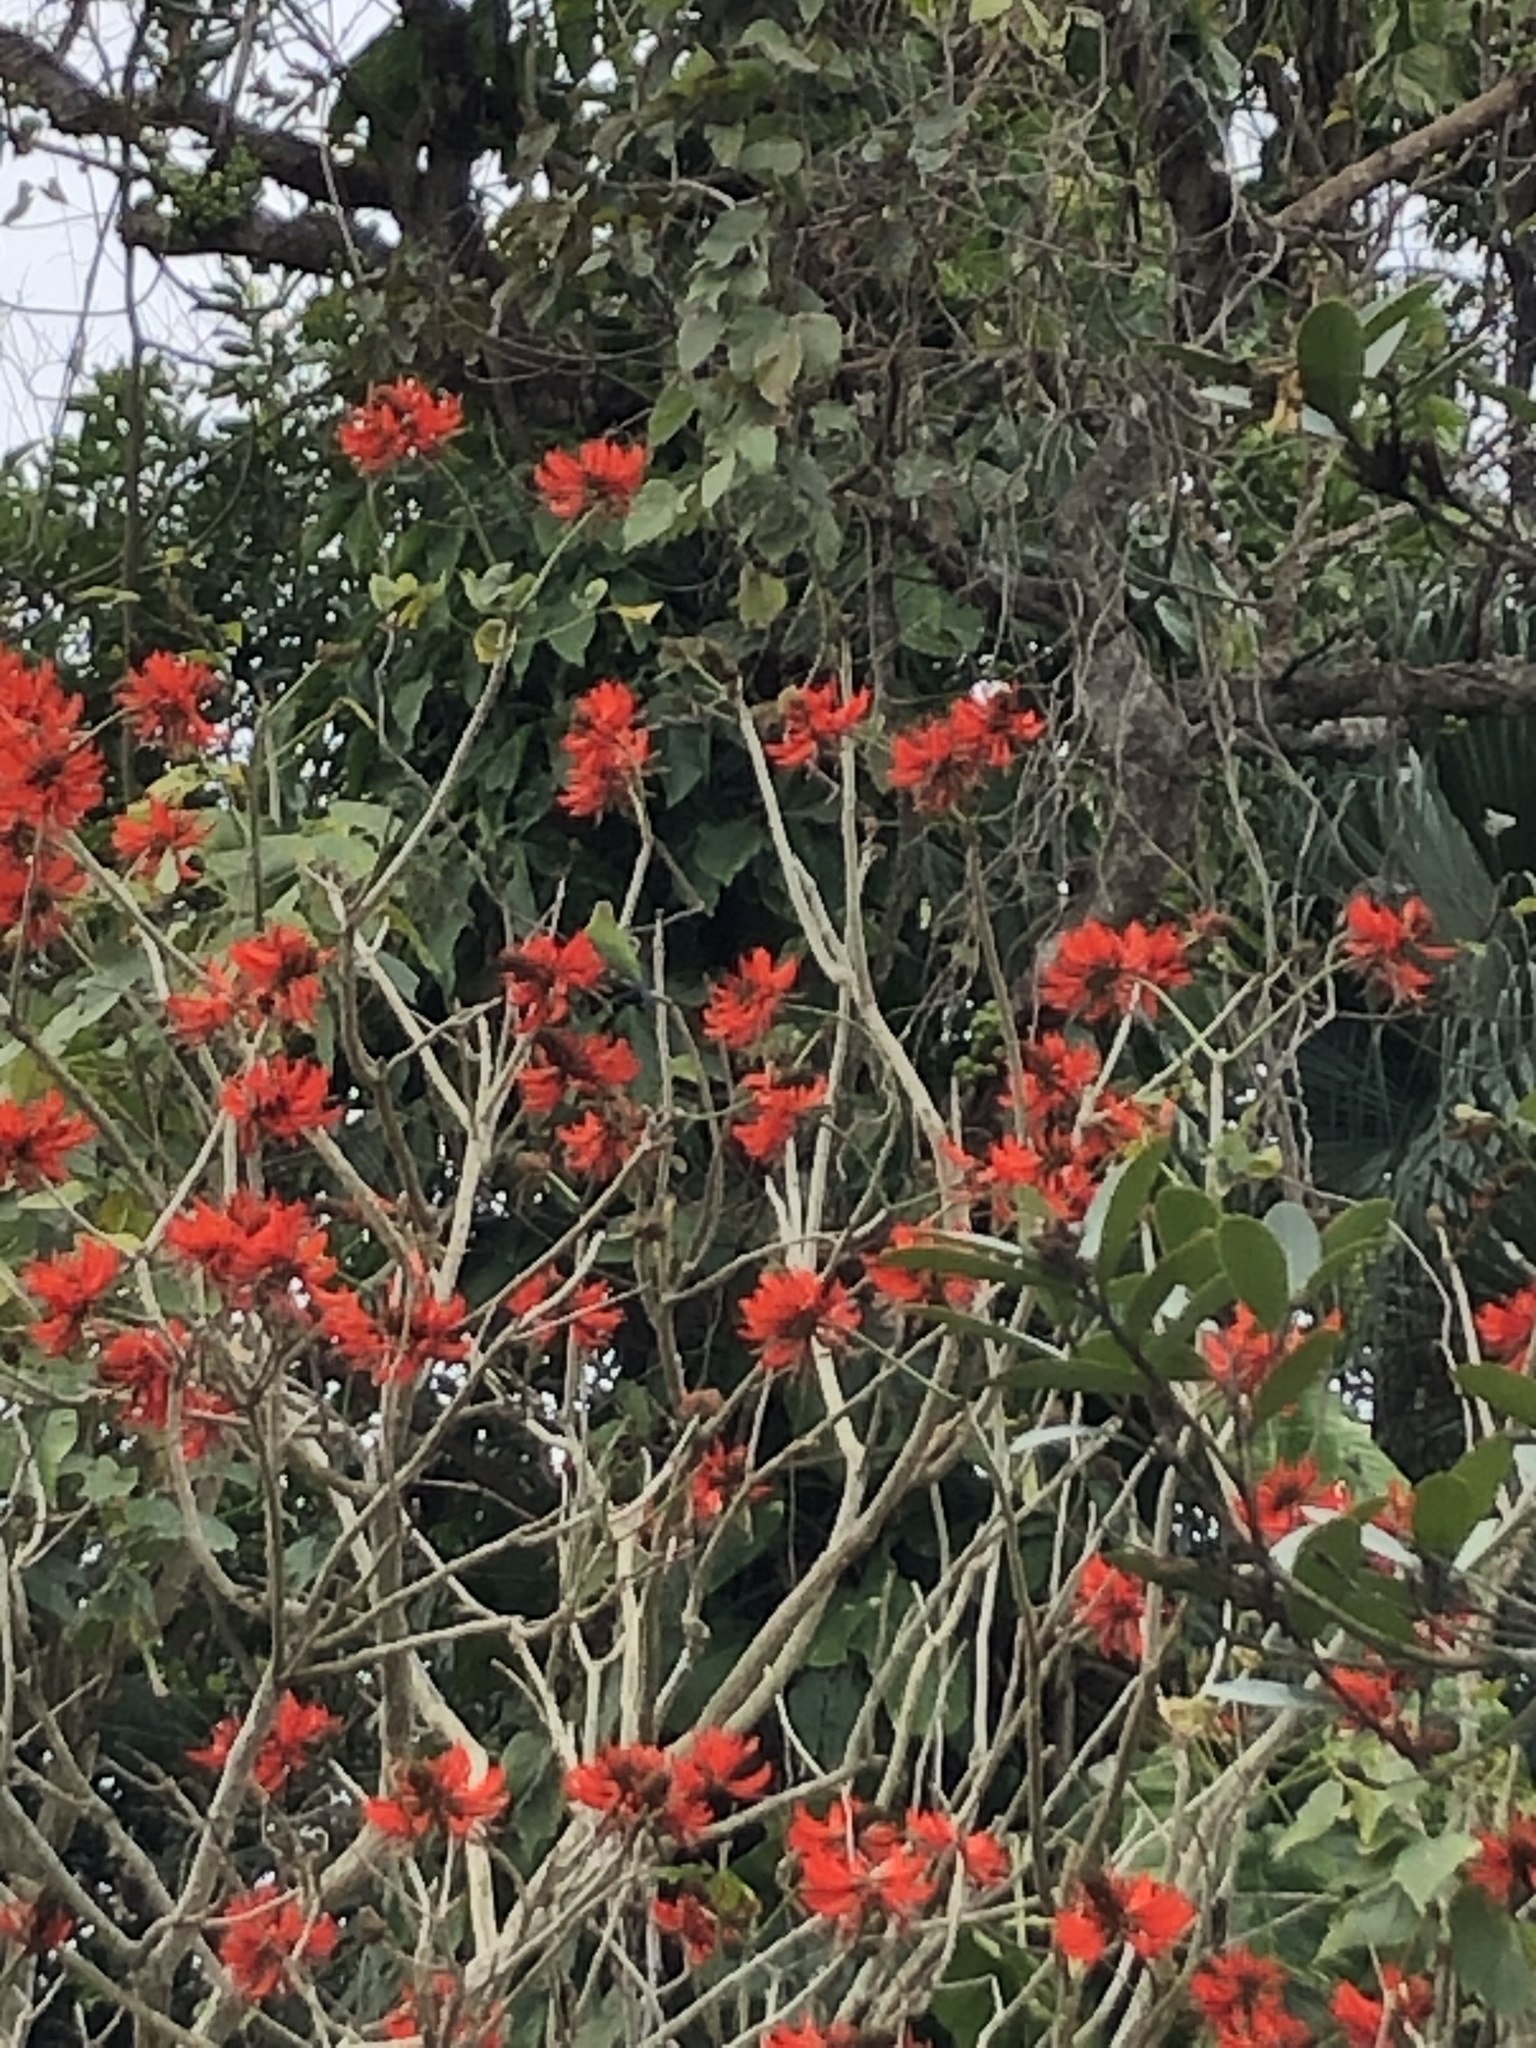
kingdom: Animalia
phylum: Chordata
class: Aves
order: Passeriformes
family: Chloropseidae
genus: Chloropsis
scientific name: Chloropsis hardwickii
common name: Orange-bellied leafbird
